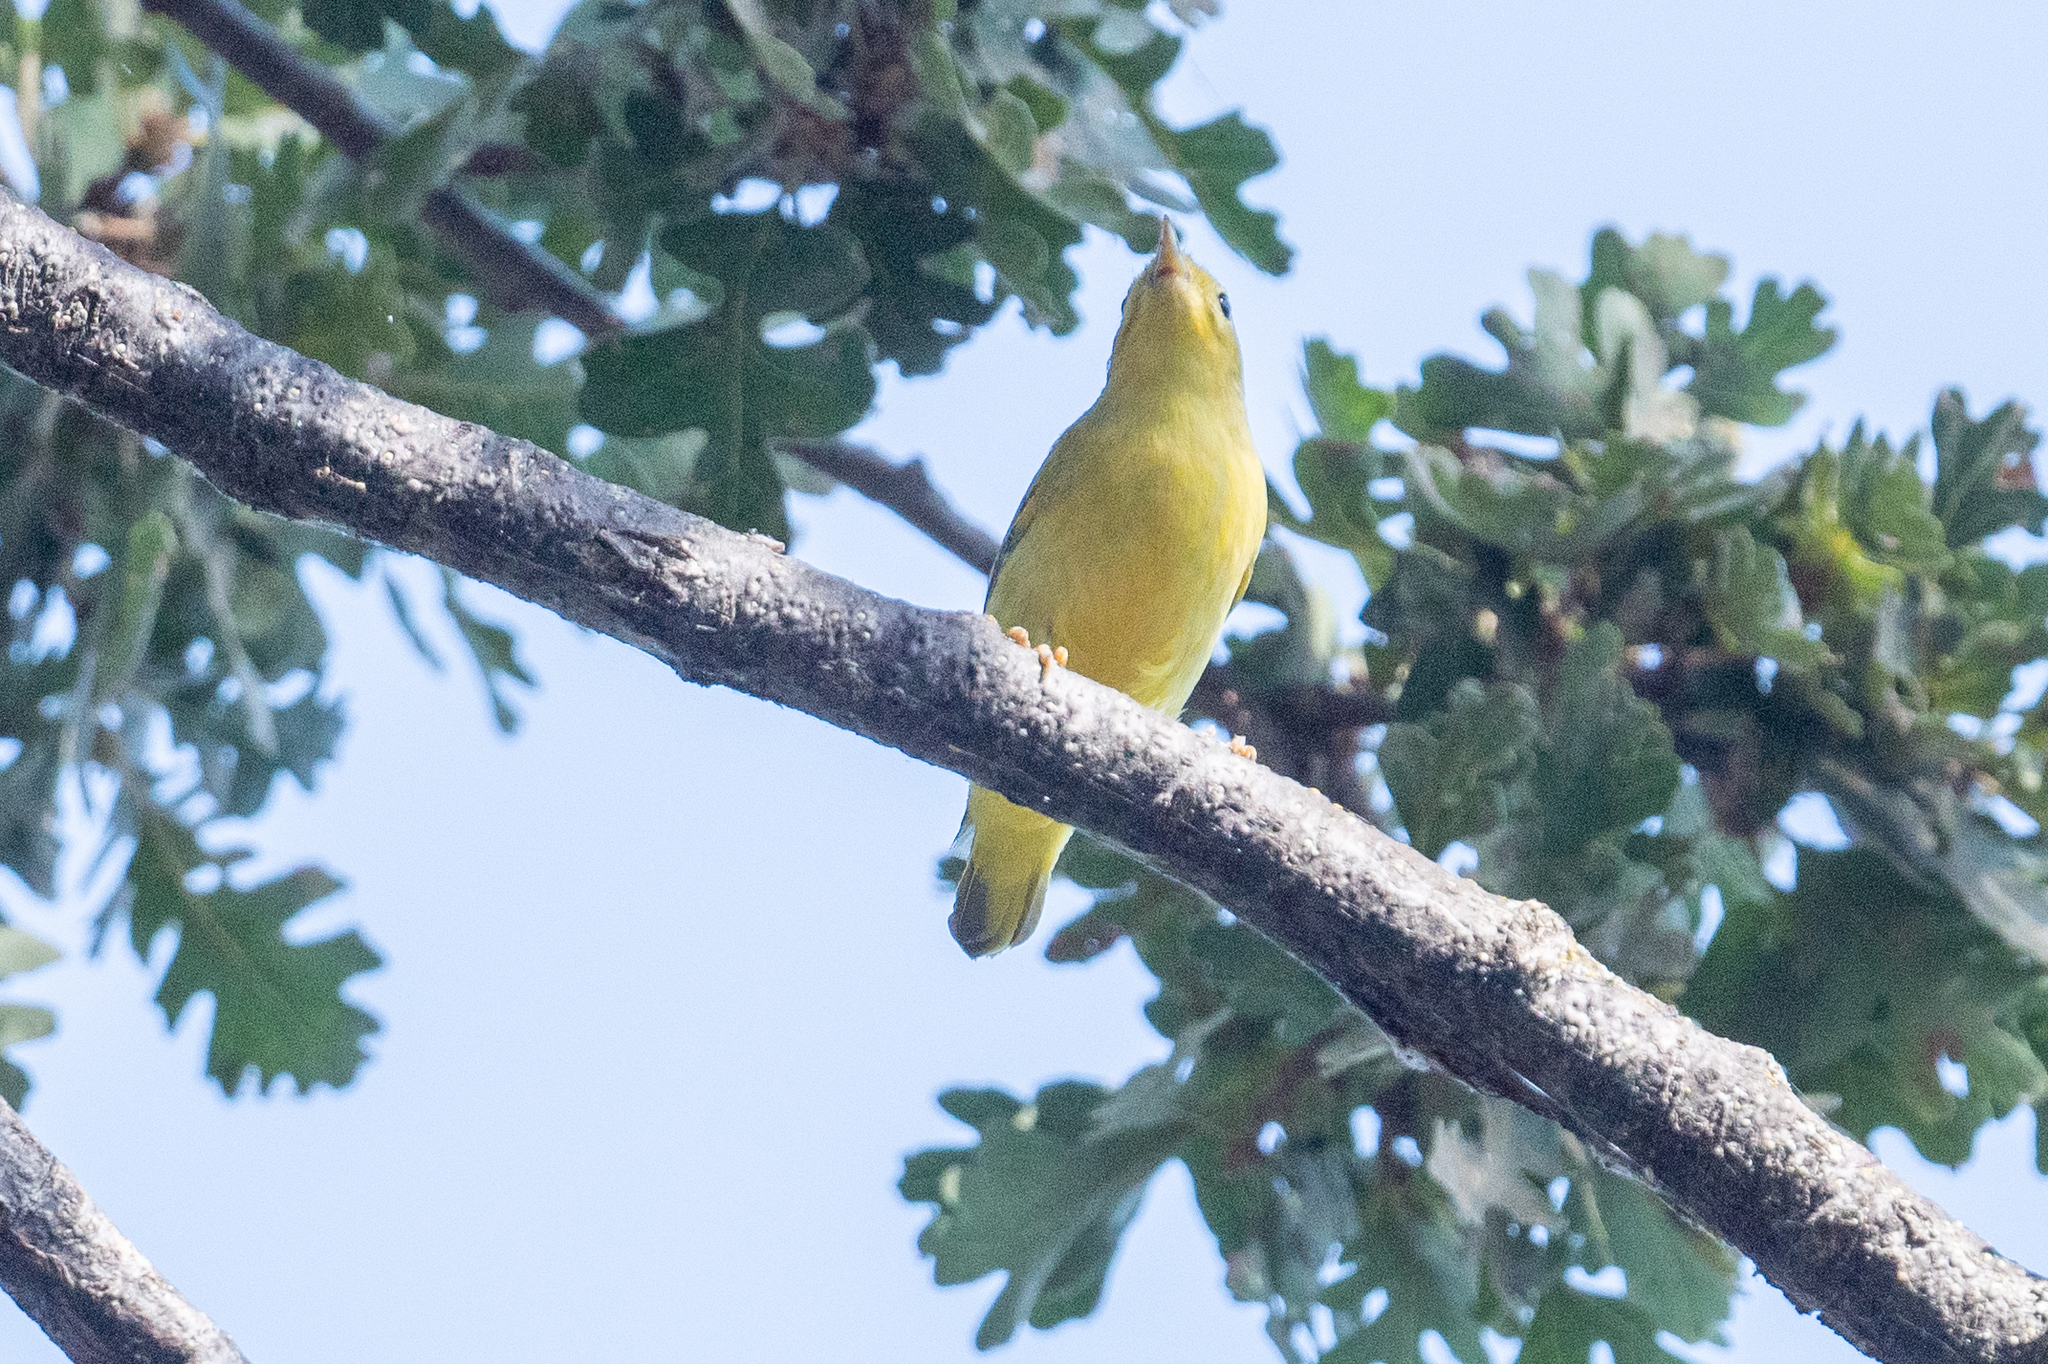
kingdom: Animalia
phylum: Chordata
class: Aves
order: Passeriformes
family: Parulidae
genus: Setophaga
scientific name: Setophaga petechia
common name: Yellow warbler
